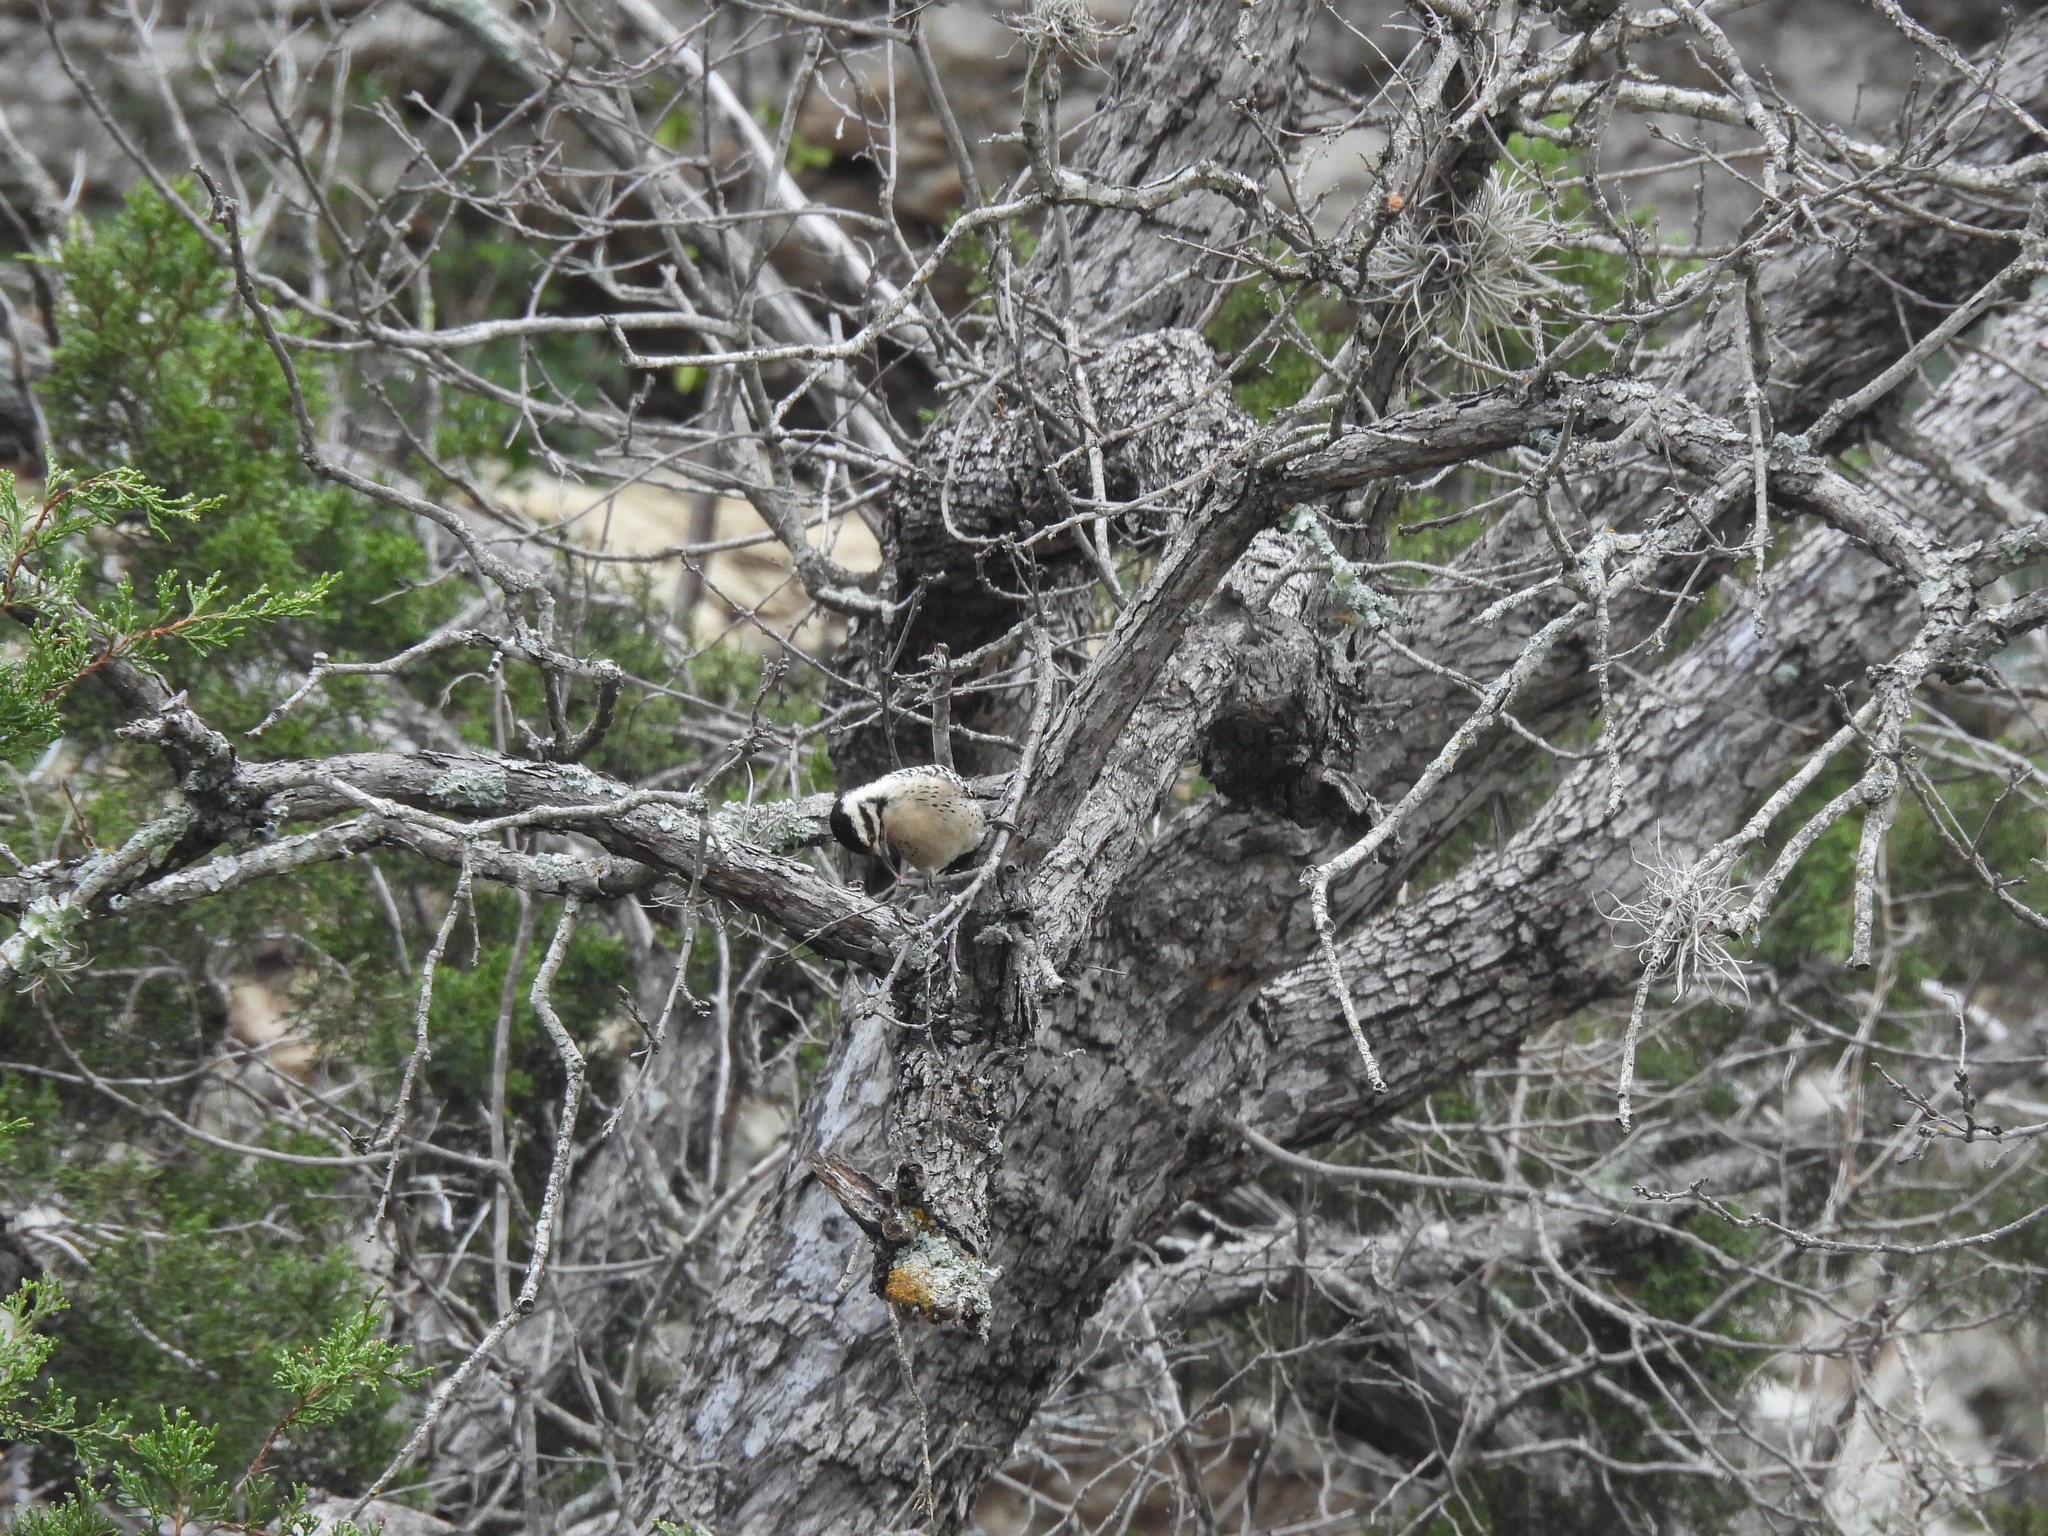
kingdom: Animalia
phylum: Chordata
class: Aves
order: Piciformes
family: Picidae
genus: Dryobates
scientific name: Dryobates scalaris
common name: Ladder-backed woodpecker
